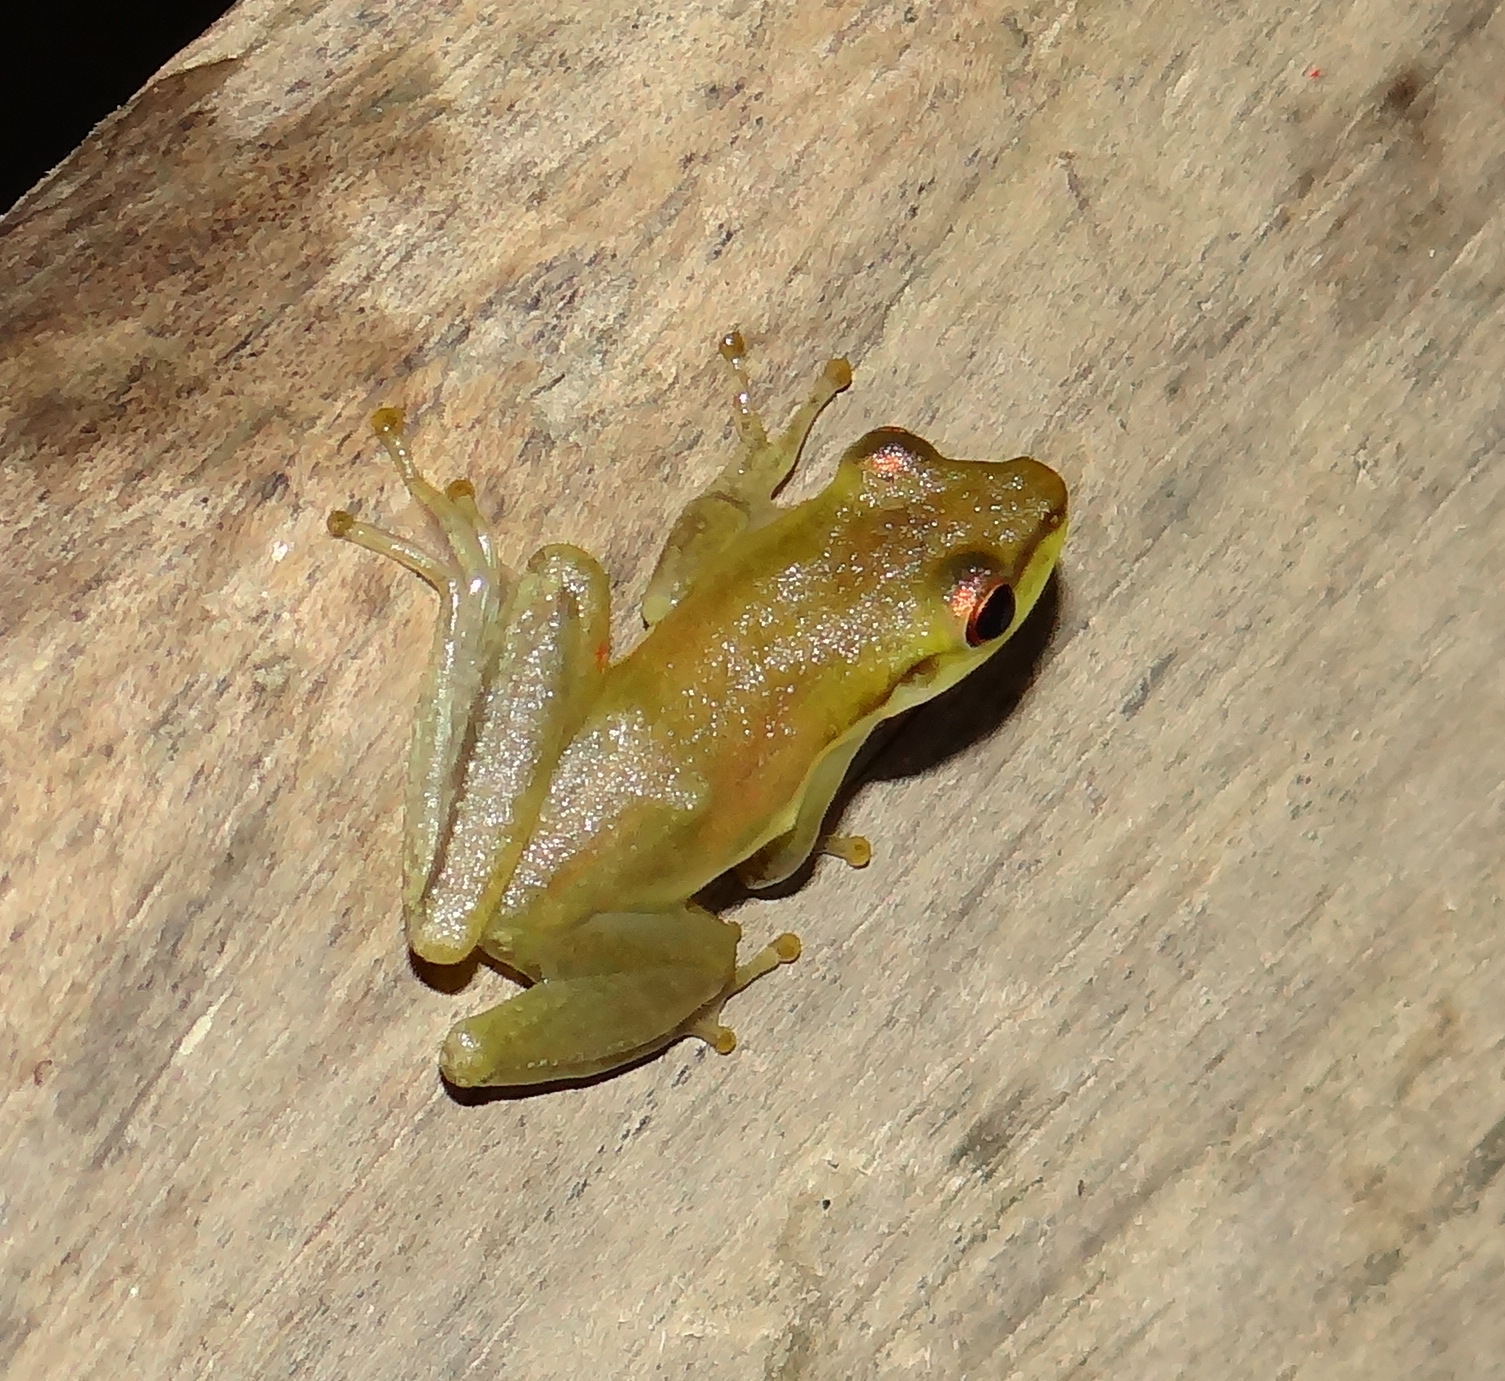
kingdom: Animalia
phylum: Chordata
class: Amphibia
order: Anura
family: Hylidae
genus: Scarthyla
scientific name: Scarthyla vigilans
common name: Maracaibo basin treefrog
